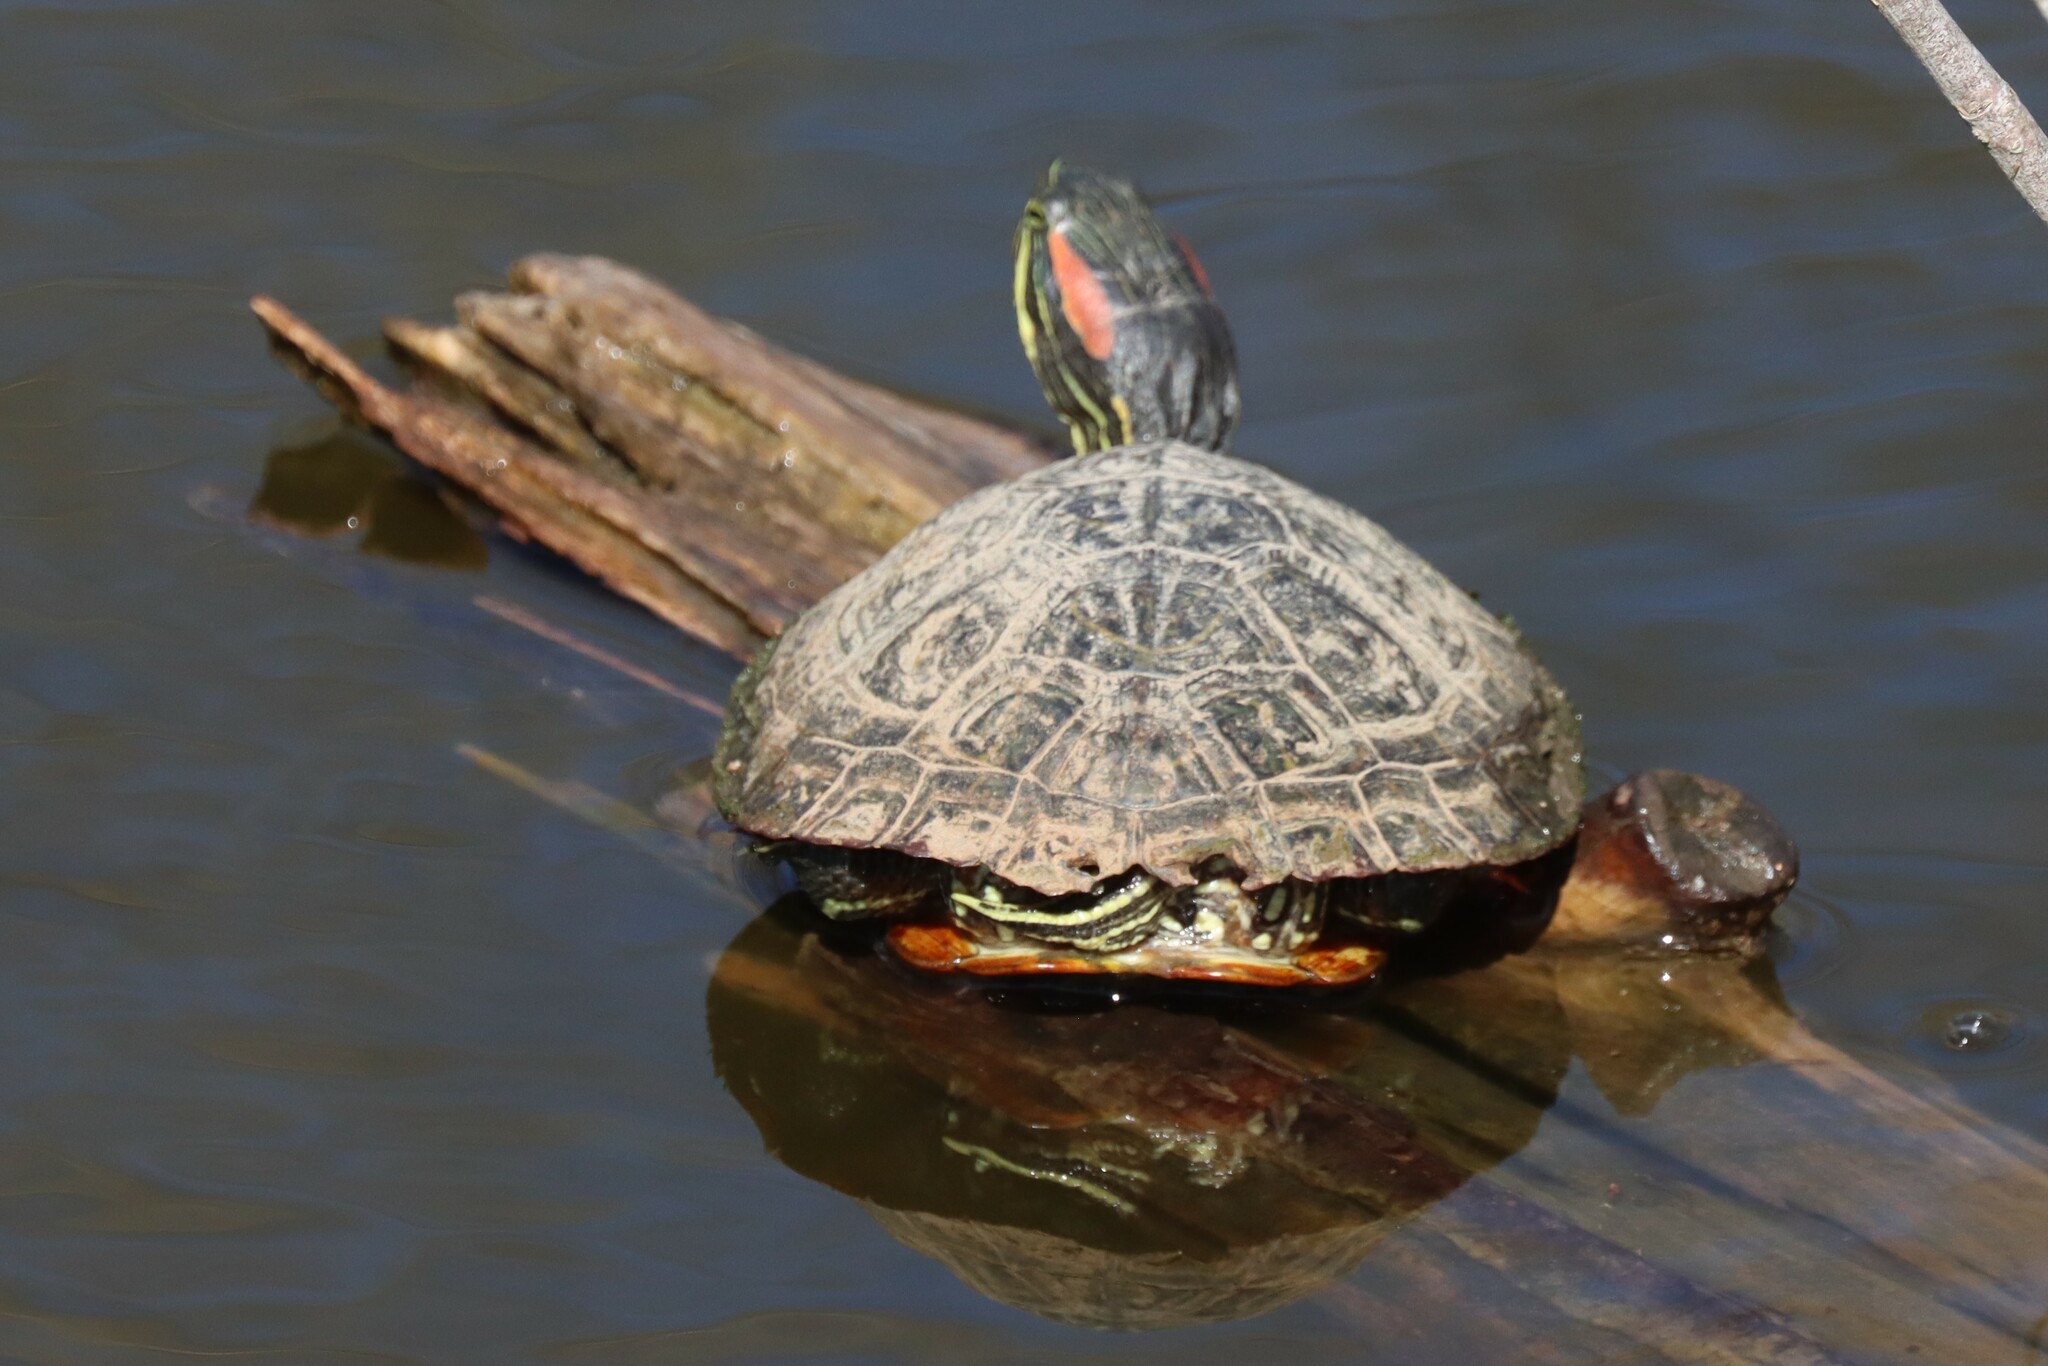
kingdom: Animalia
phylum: Chordata
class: Testudines
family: Emydidae
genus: Trachemys
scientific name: Trachemys scripta
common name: Slider
